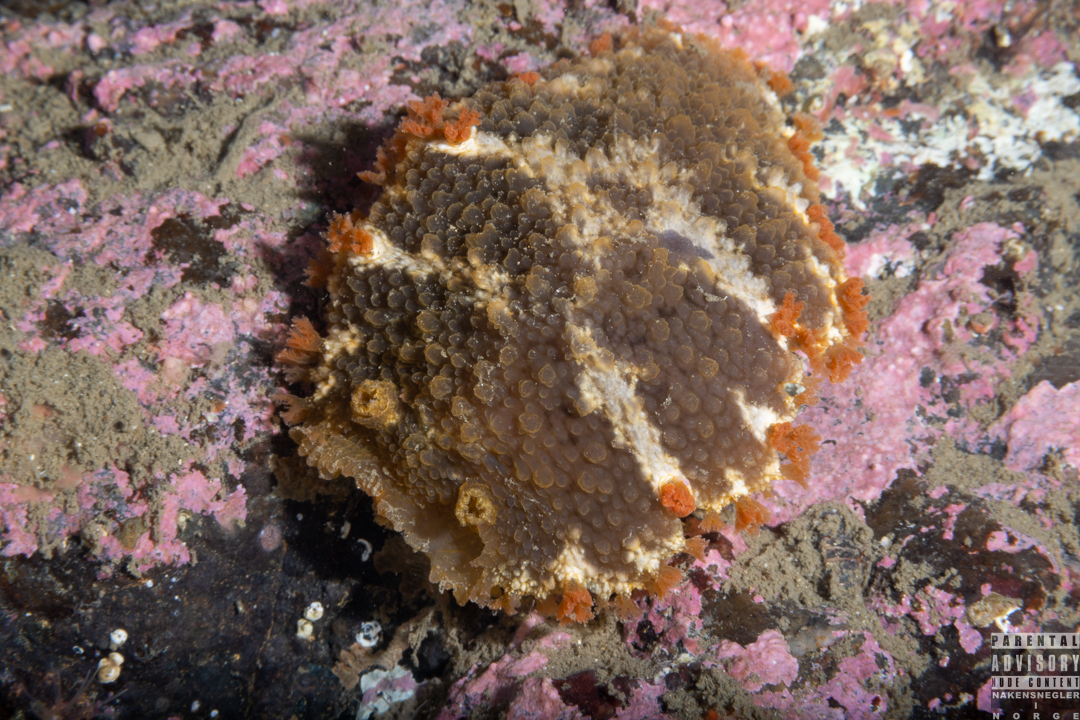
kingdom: Animalia
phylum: Mollusca
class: Gastropoda
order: Nudibranchia
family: Tritoniidae
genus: Tritonia
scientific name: Tritonia hombergii
